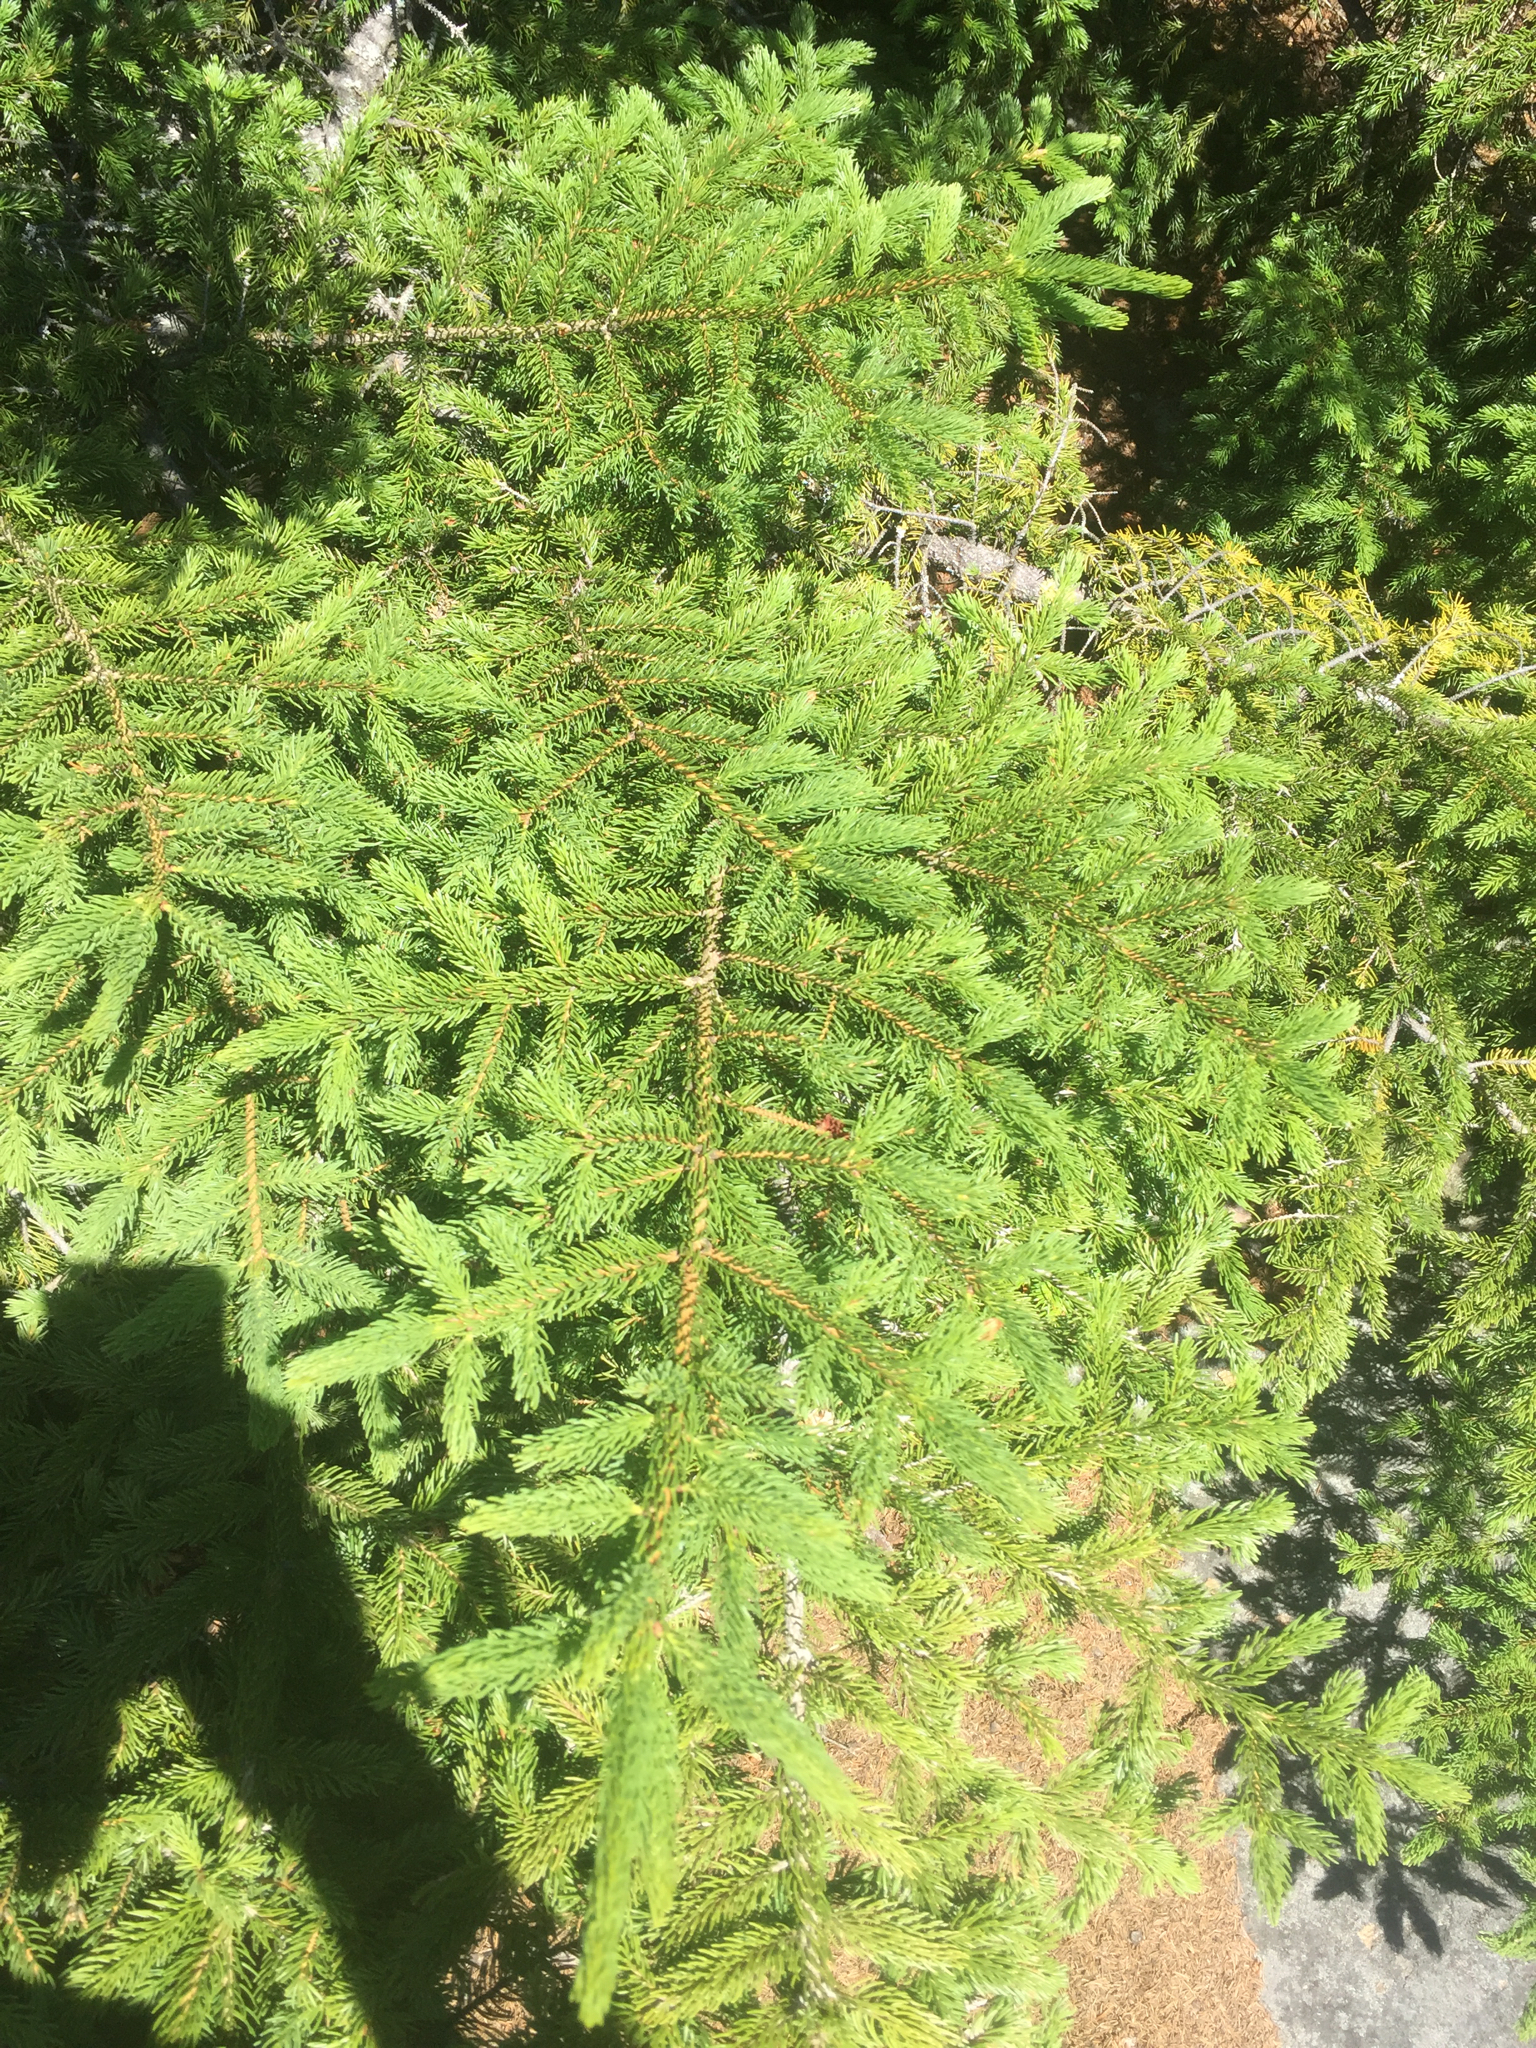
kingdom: Plantae
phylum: Tracheophyta
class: Pinopsida
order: Pinales
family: Pinaceae
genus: Picea
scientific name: Picea rubens
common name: Red spruce
